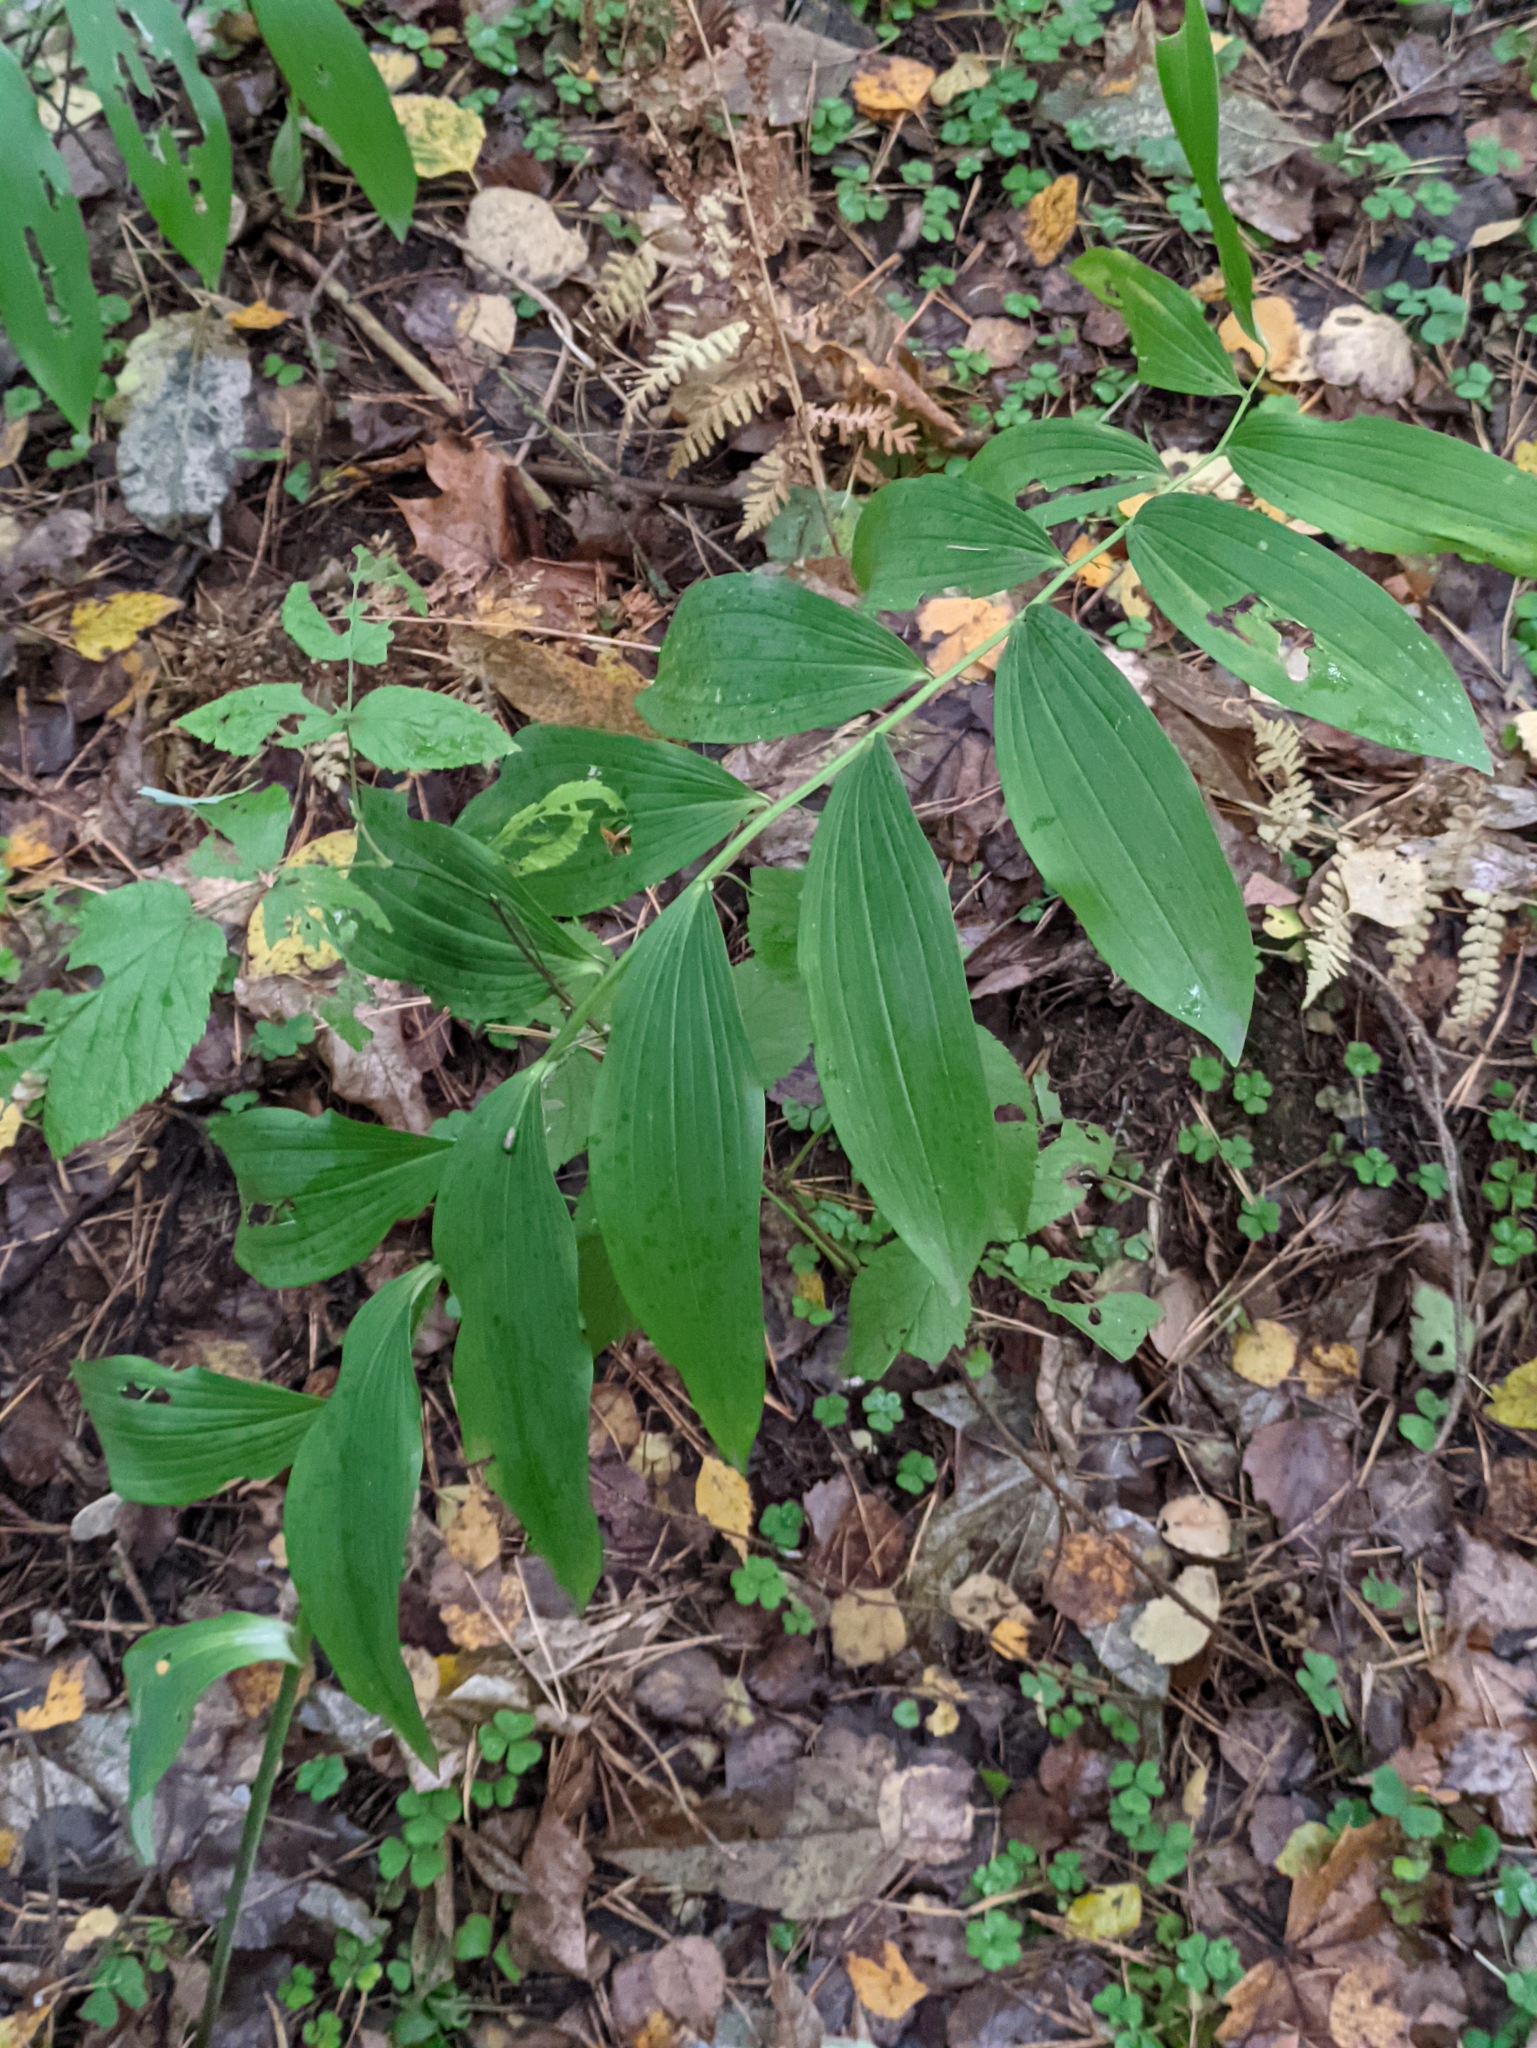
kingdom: Plantae
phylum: Tracheophyta
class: Liliopsida
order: Asparagales
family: Asparagaceae
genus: Polygonatum
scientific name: Polygonatum multiflorum
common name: Solomon's-seal
